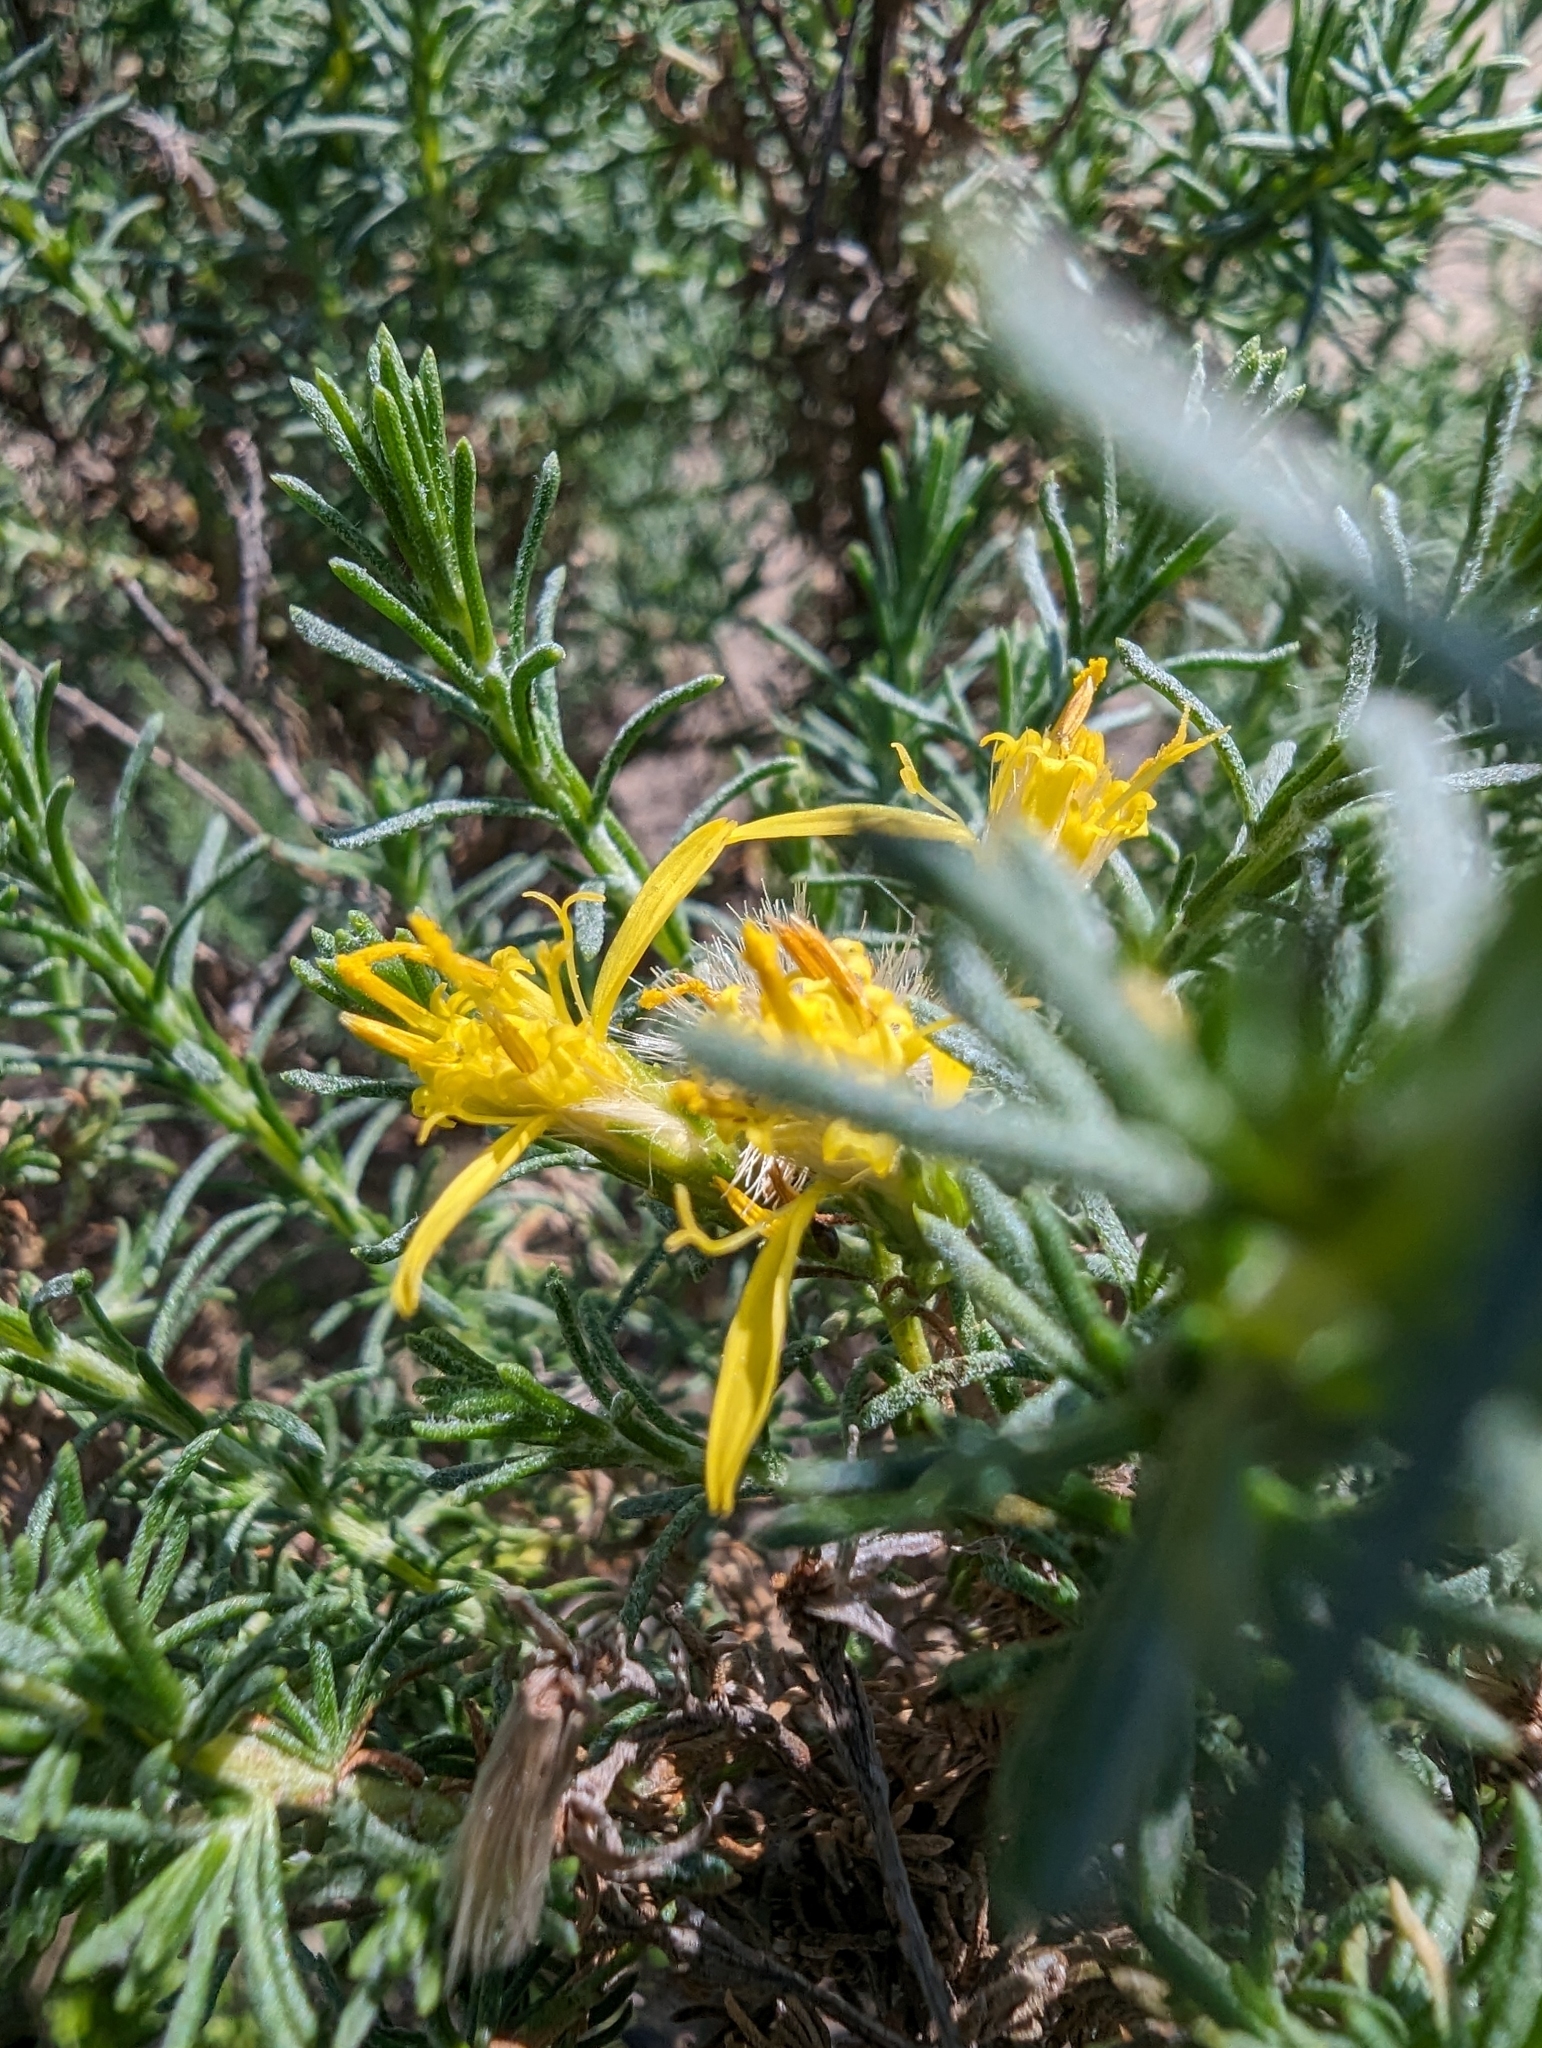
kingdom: Plantae
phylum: Tracheophyta
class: Magnoliopsida
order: Asterales
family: Asteraceae
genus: Ericameria
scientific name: Ericameria ericoides
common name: California goldenbush
